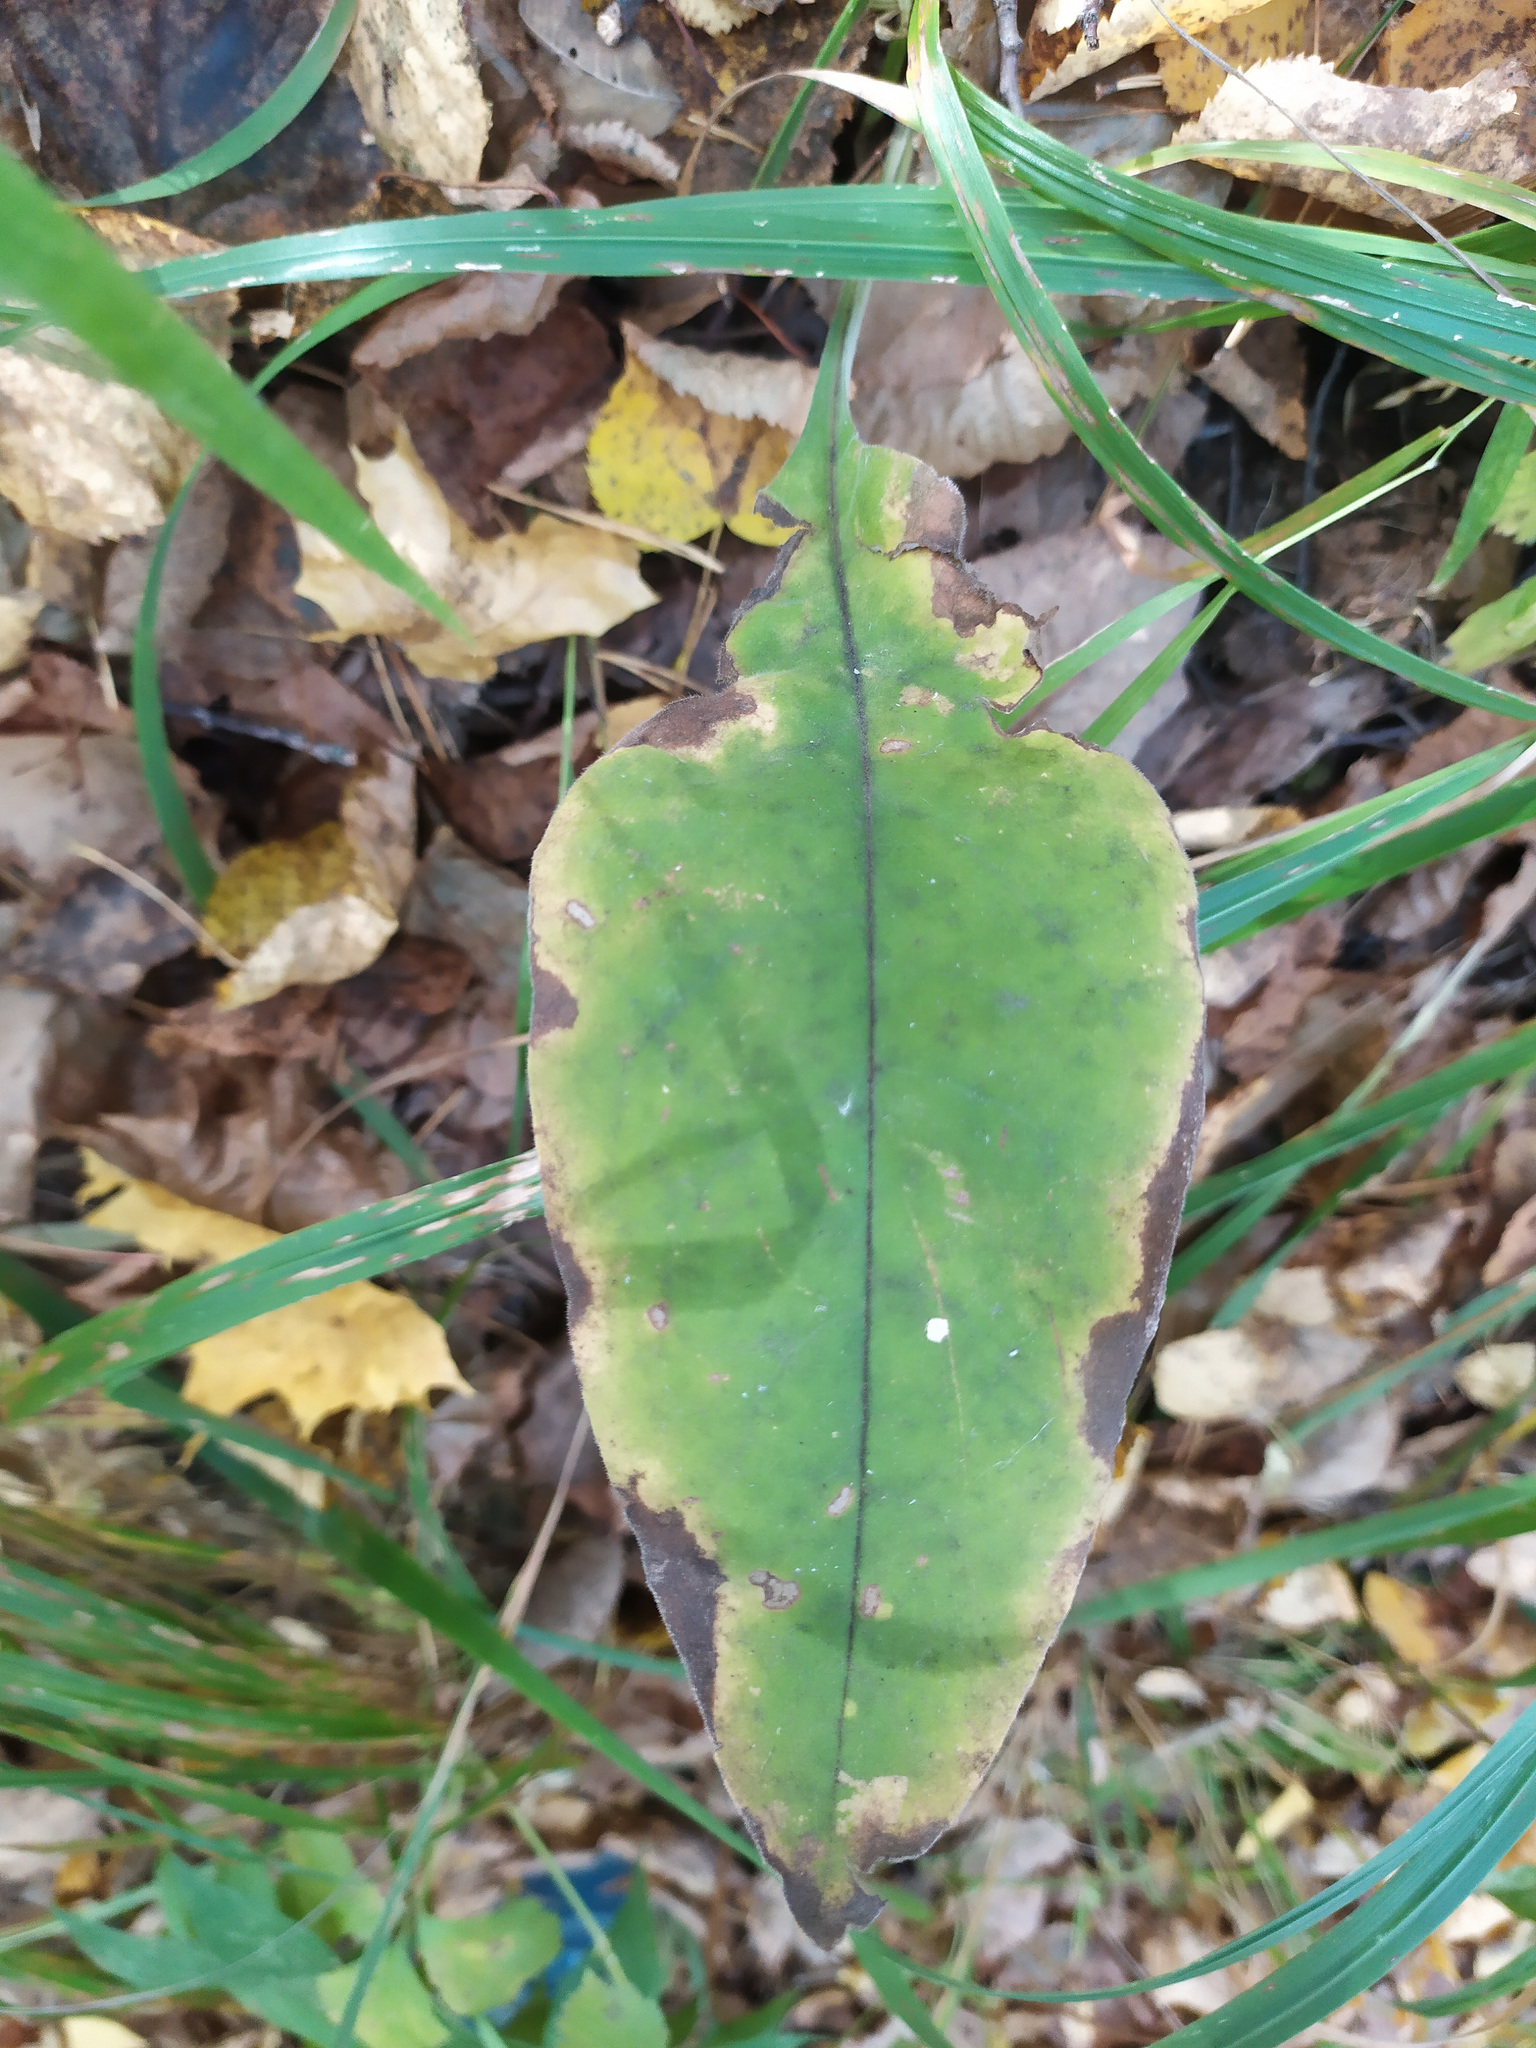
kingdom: Plantae
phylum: Tracheophyta
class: Magnoliopsida
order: Boraginales
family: Boraginaceae
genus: Pulmonaria
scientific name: Pulmonaria mollis
